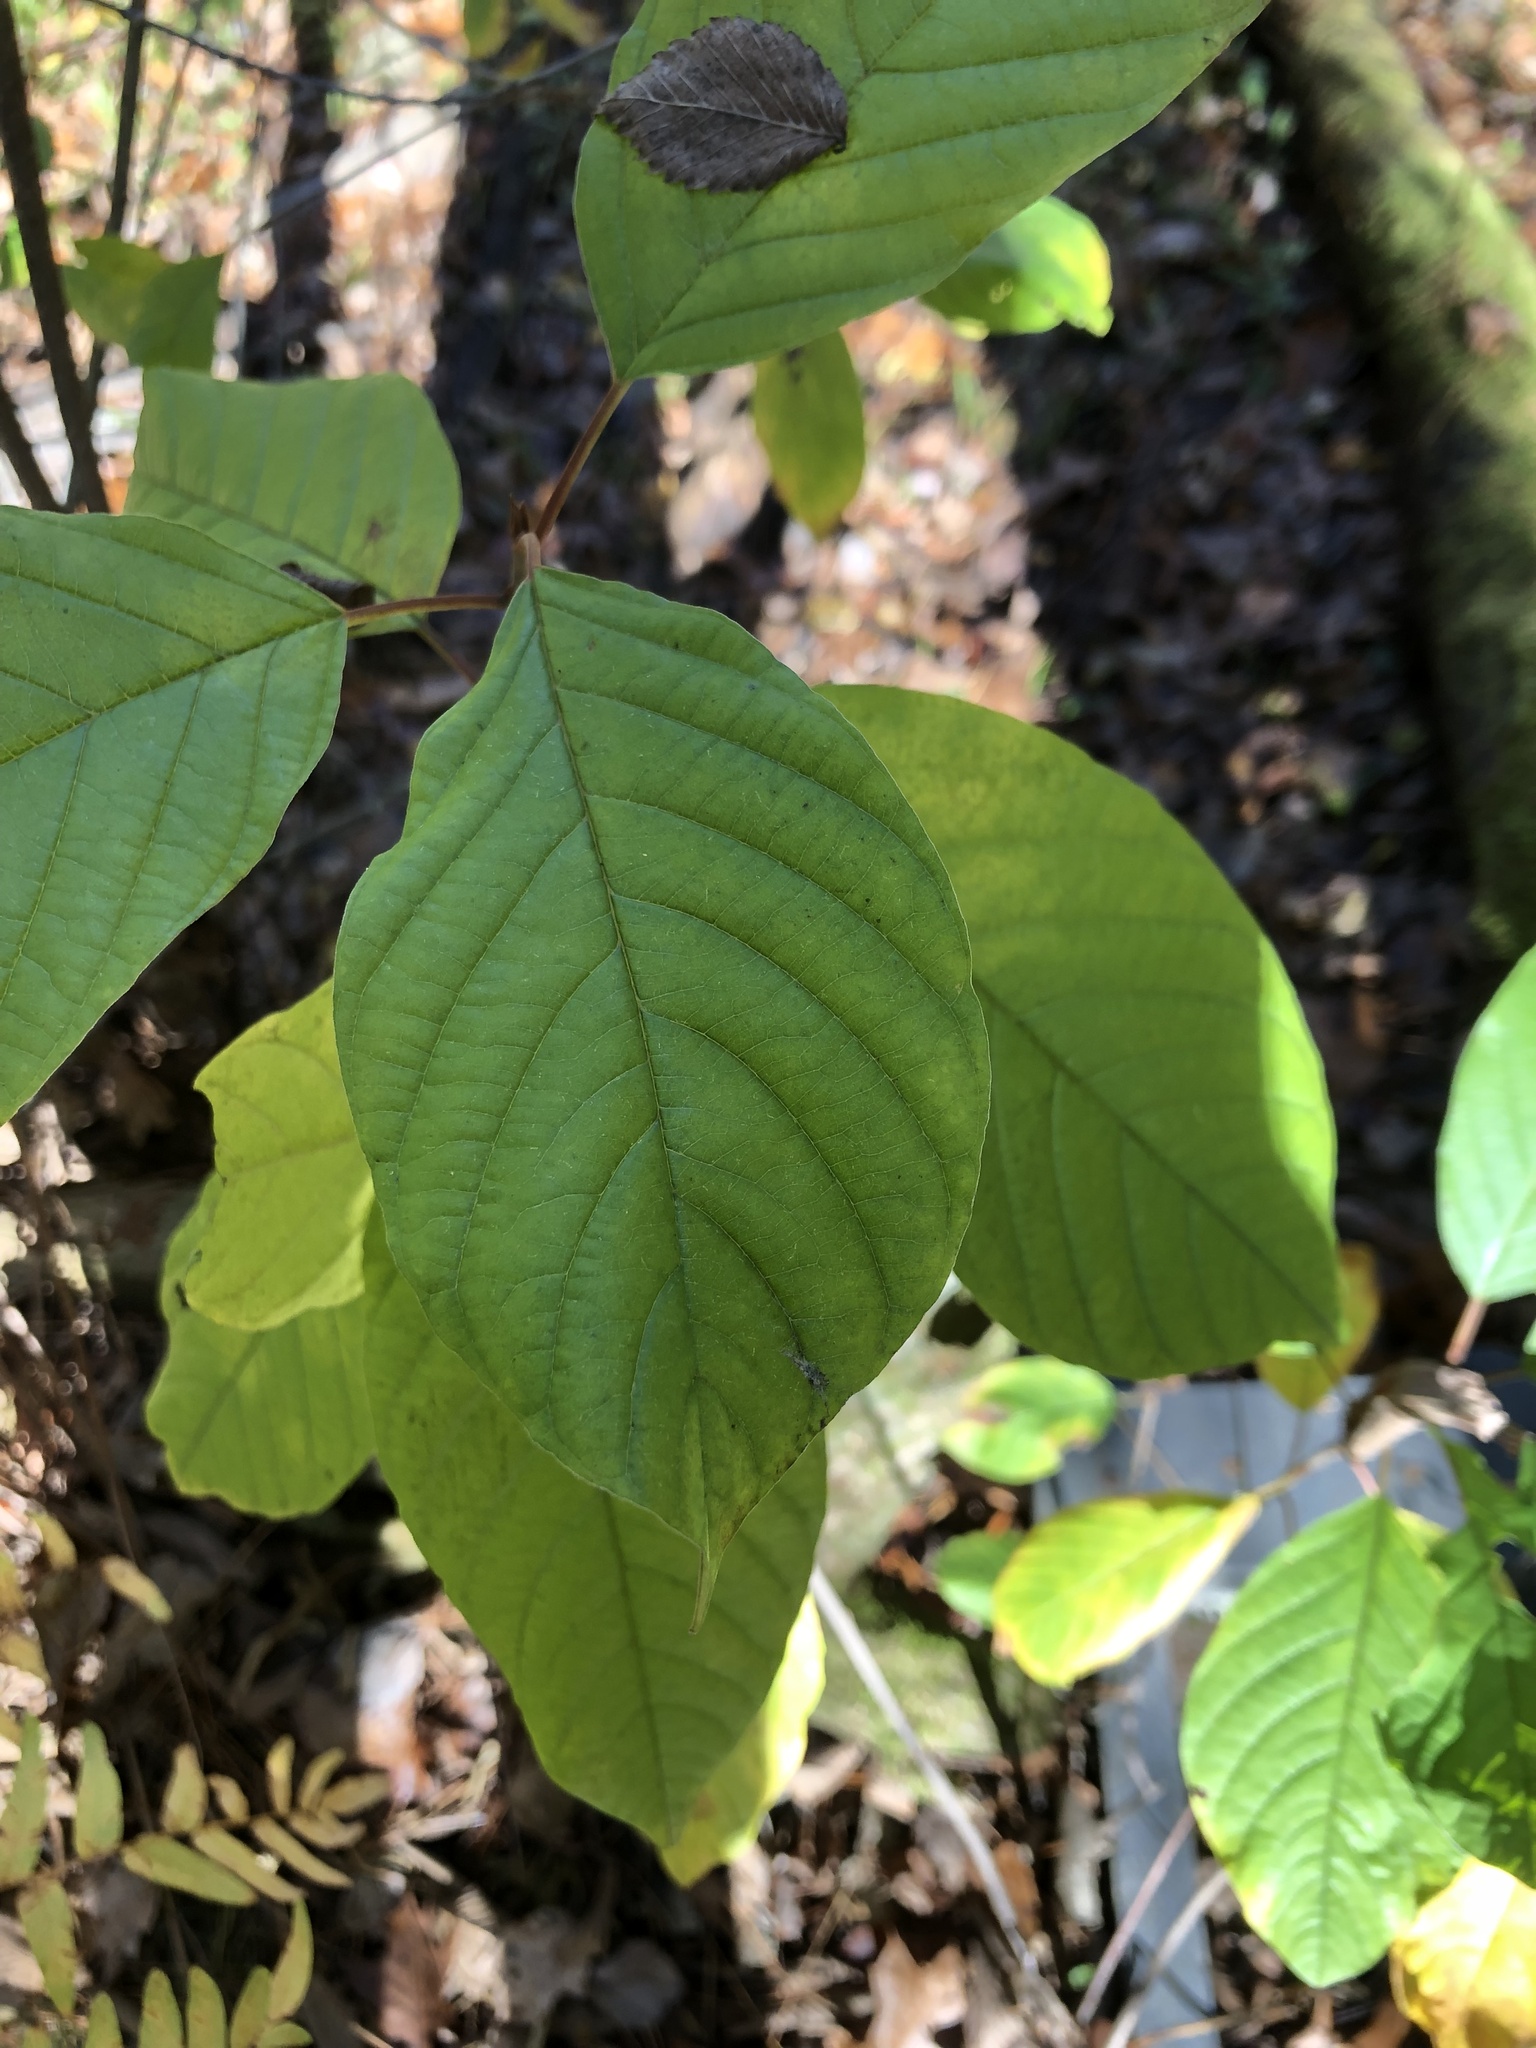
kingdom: Plantae
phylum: Tracheophyta
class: Magnoliopsida
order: Rosales
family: Rhamnaceae
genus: Frangula
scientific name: Frangula alnus
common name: Alder buckthorn
